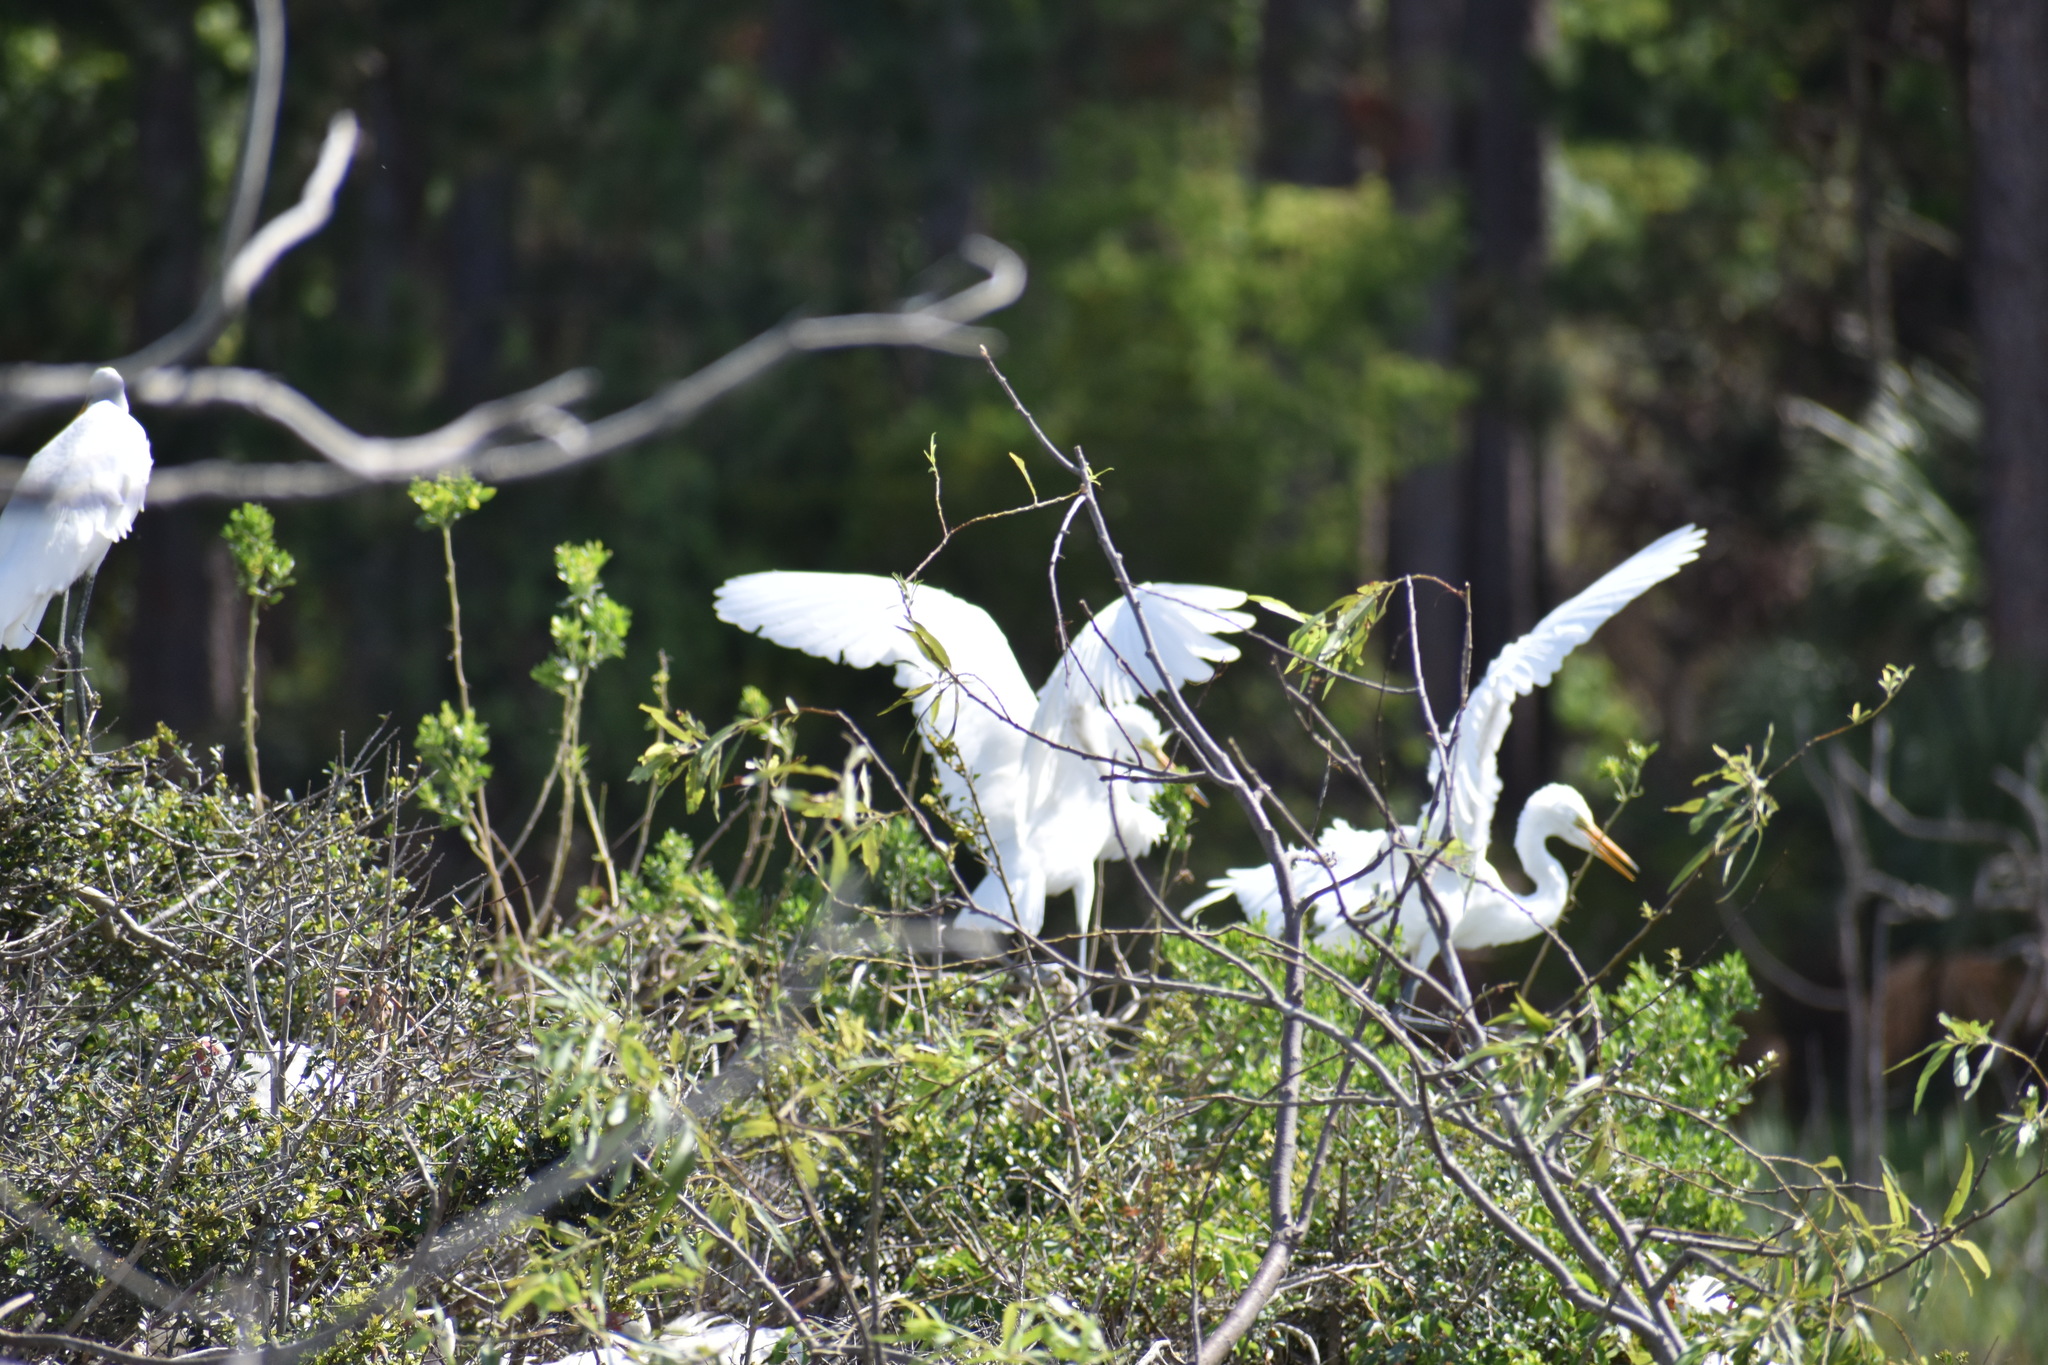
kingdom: Animalia
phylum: Chordata
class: Aves
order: Pelecaniformes
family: Ardeidae
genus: Ardea
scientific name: Ardea alba
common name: Great egret
